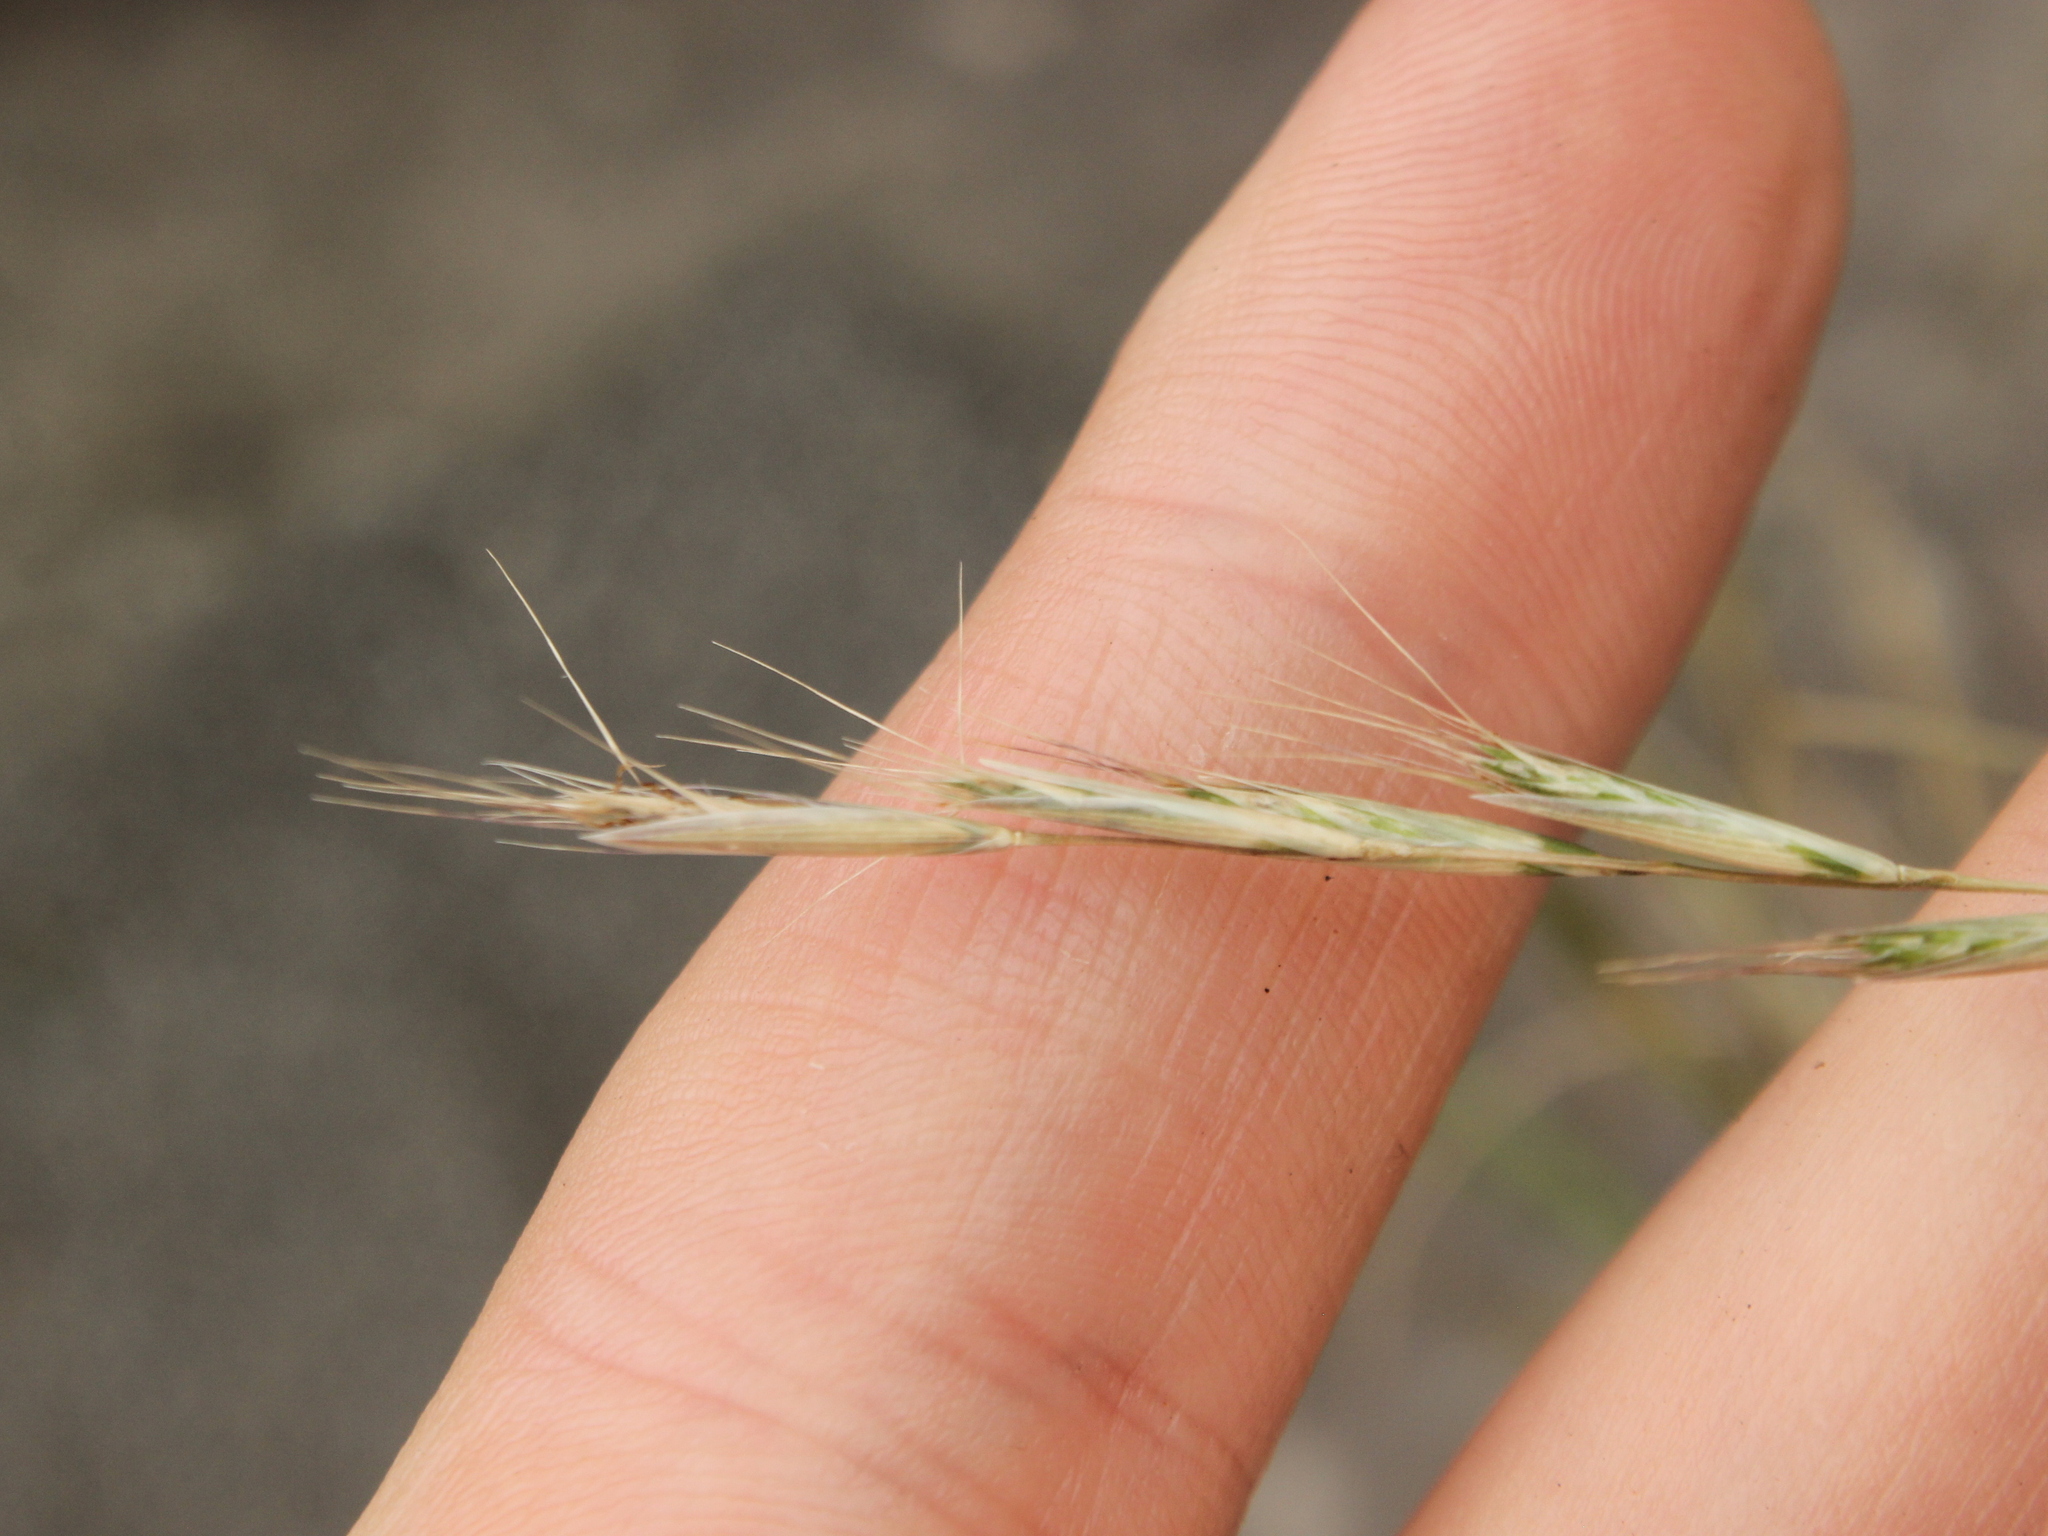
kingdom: Plantae
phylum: Tracheophyta
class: Liliopsida
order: Poales
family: Poaceae
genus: Rytidosperma
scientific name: Rytidosperma racemosum
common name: Wallaby-grass
